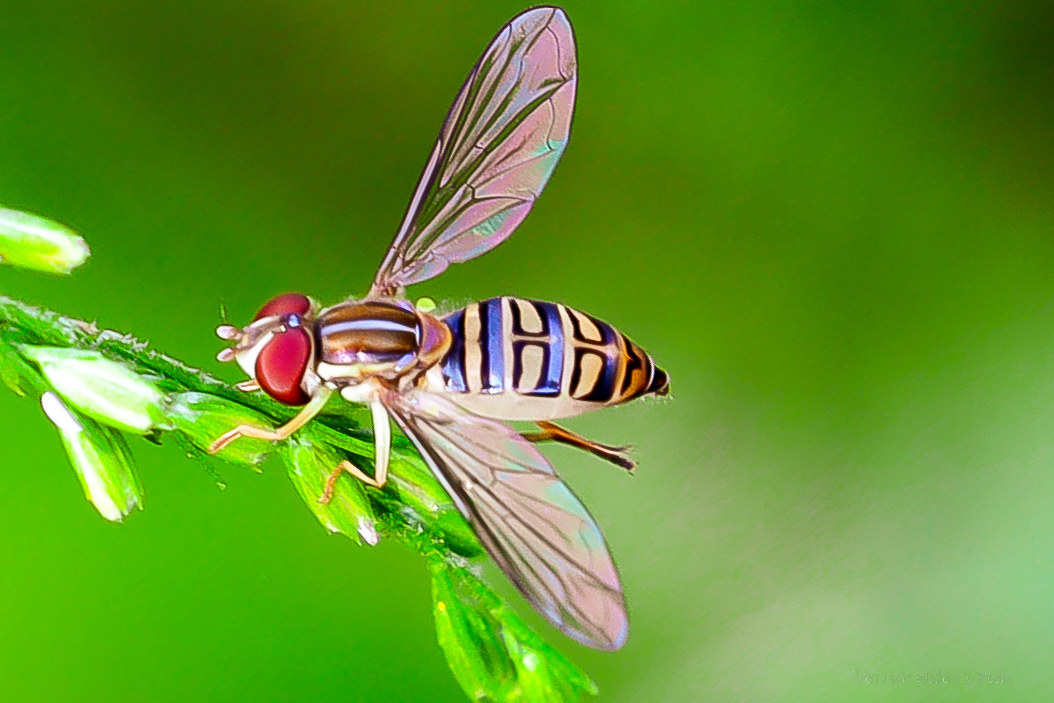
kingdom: Animalia
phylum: Arthropoda
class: Insecta
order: Diptera
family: Syrphidae
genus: Toxomerus
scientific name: Toxomerus politus
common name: Maize calligrapher
